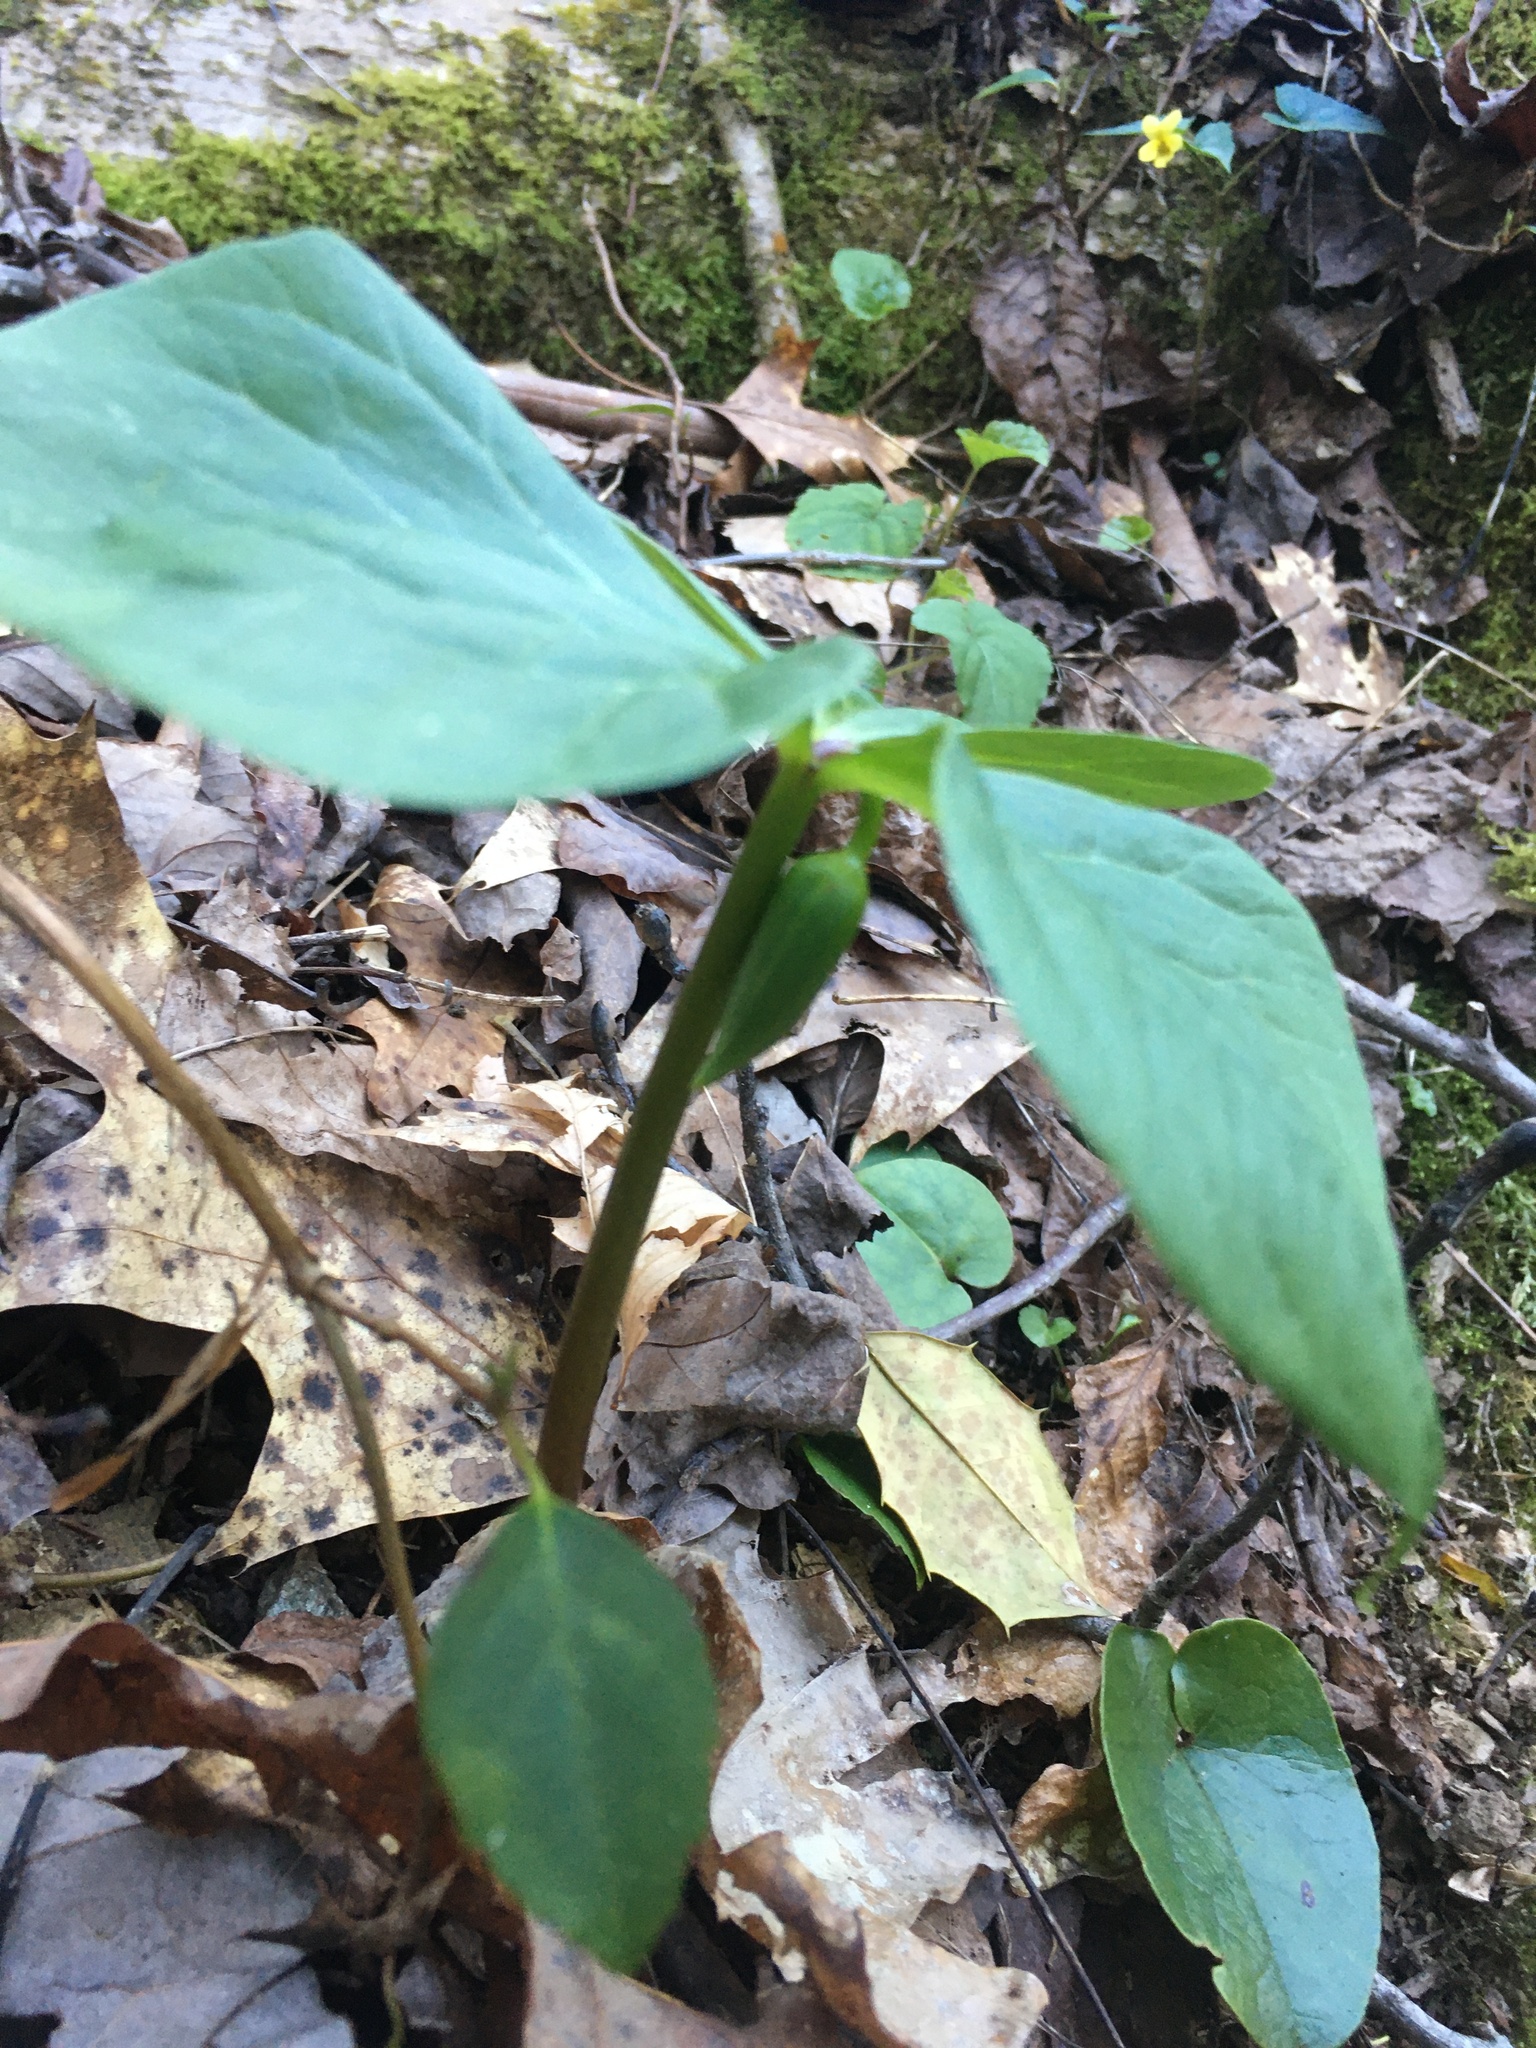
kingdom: Plantae
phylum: Tracheophyta
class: Liliopsida
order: Liliales
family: Melanthiaceae
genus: Trillium
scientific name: Trillium catesbaei
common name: Bashful trillium
